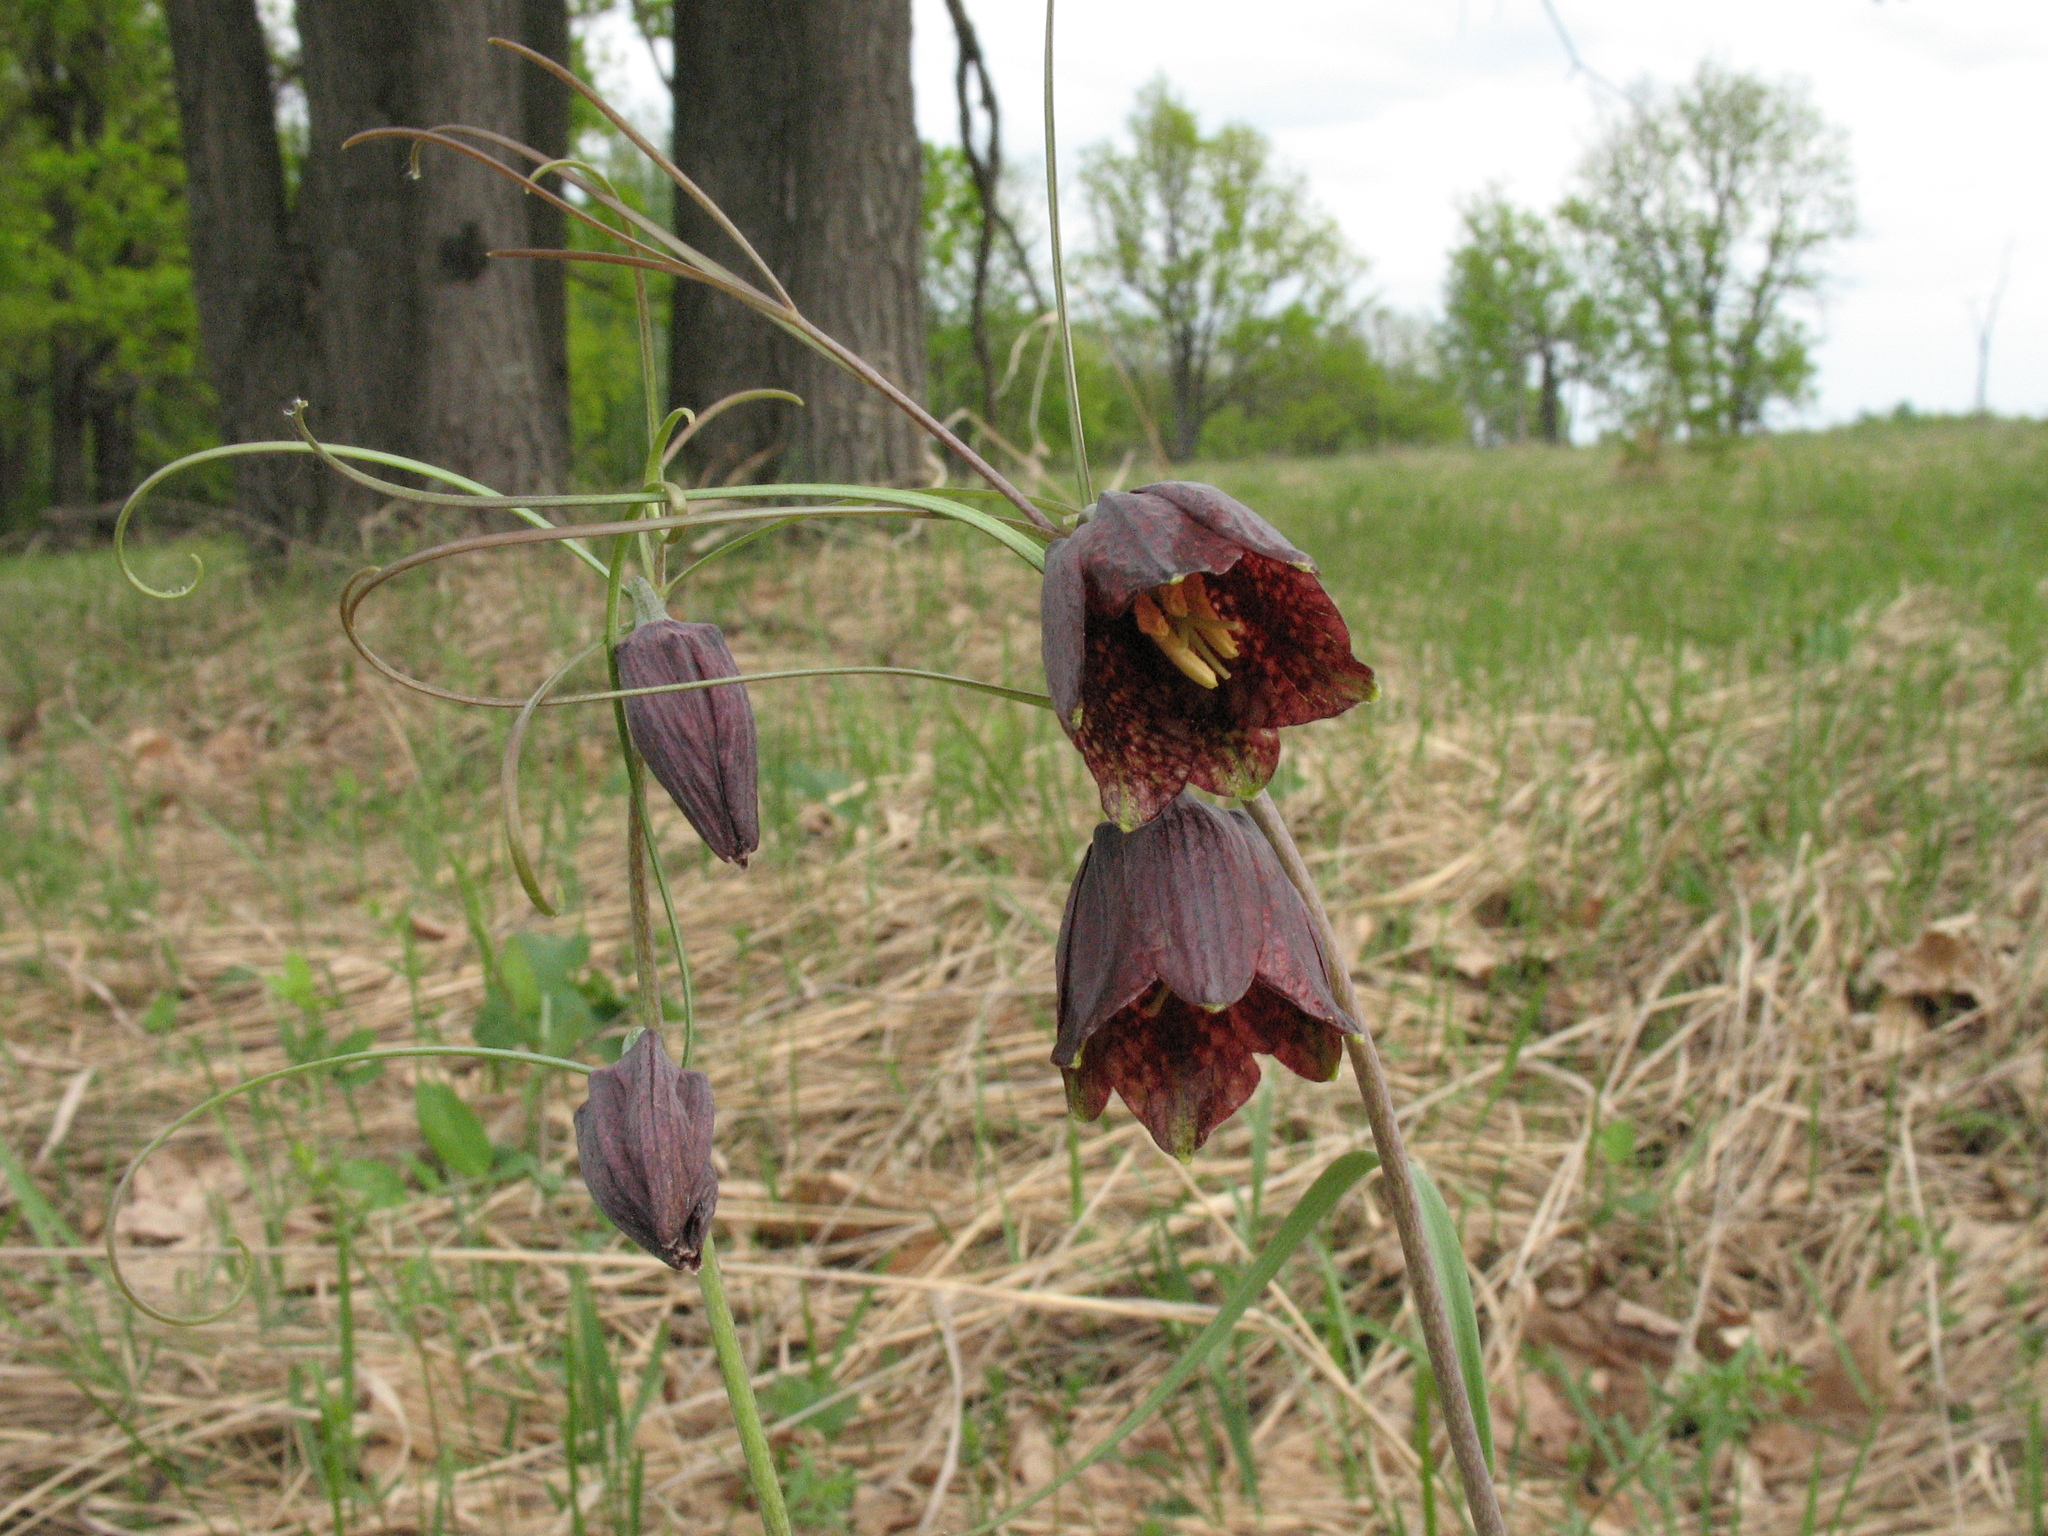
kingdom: Plantae
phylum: Tracheophyta
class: Liliopsida
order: Liliales
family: Liliaceae
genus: Fritillaria
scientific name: Fritillaria ruthenica
